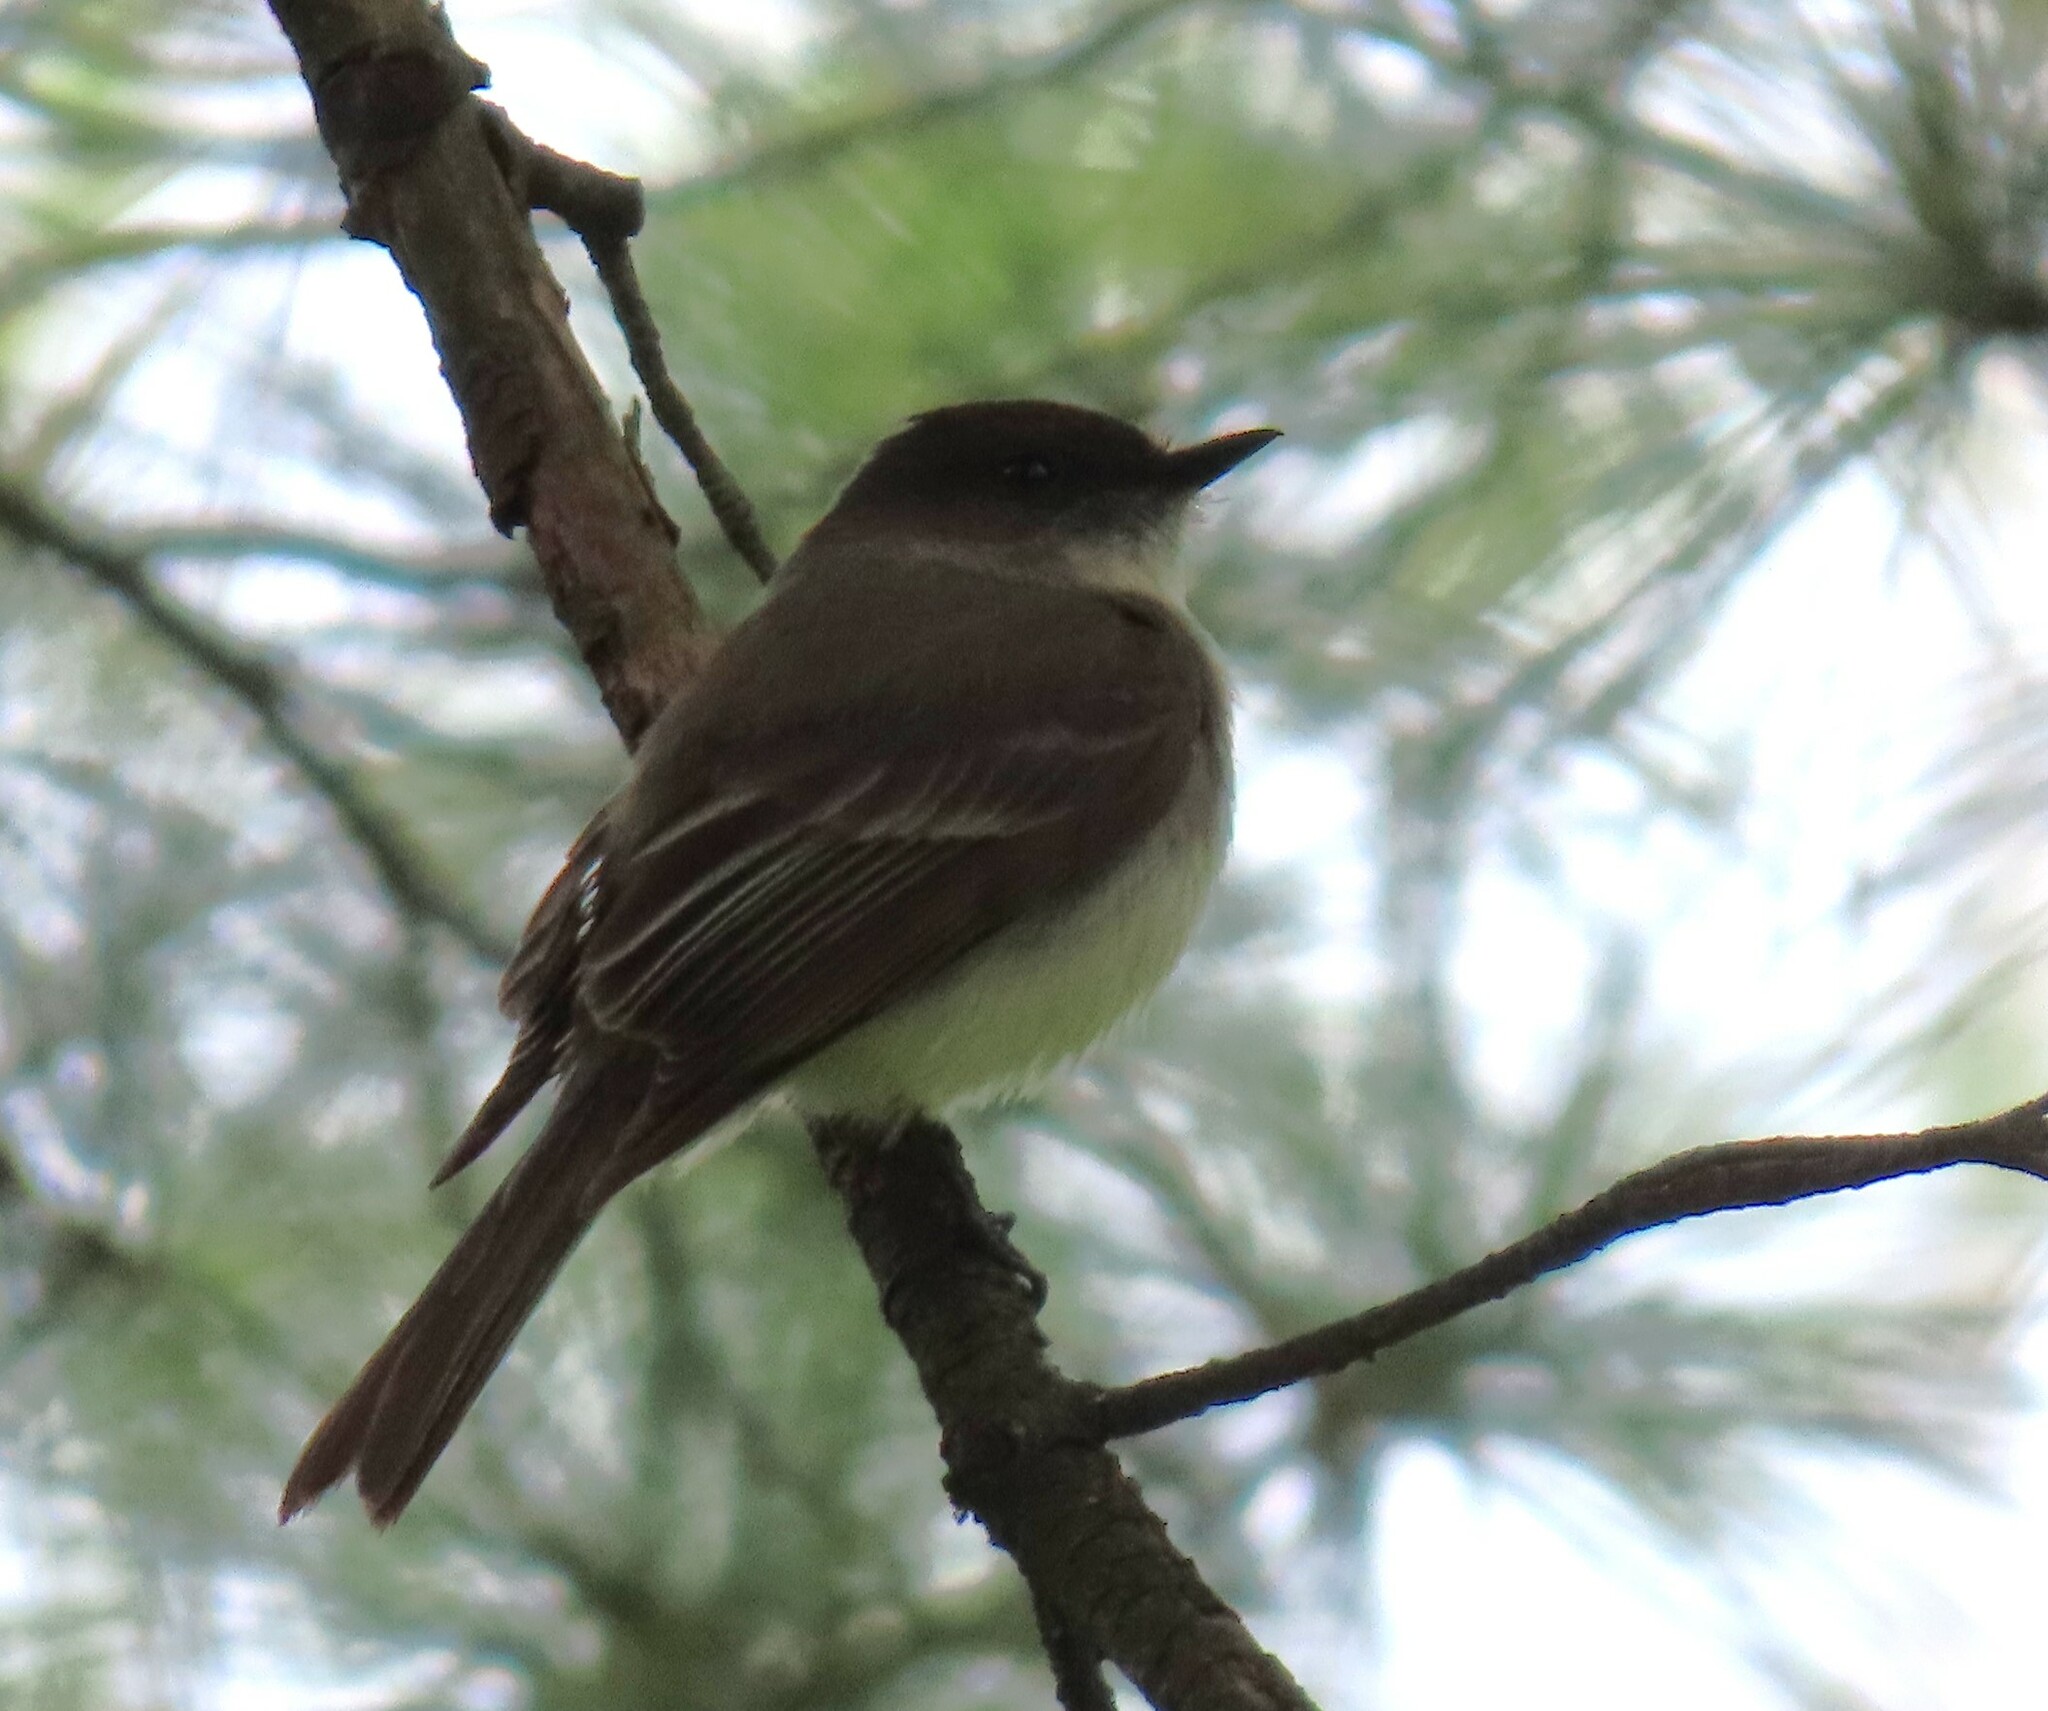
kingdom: Animalia
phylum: Chordata
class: Aves
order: Passeriformes
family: Tyrannidae
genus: Sayornis
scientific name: Sayornis phoebe
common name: Eastern phoebe
